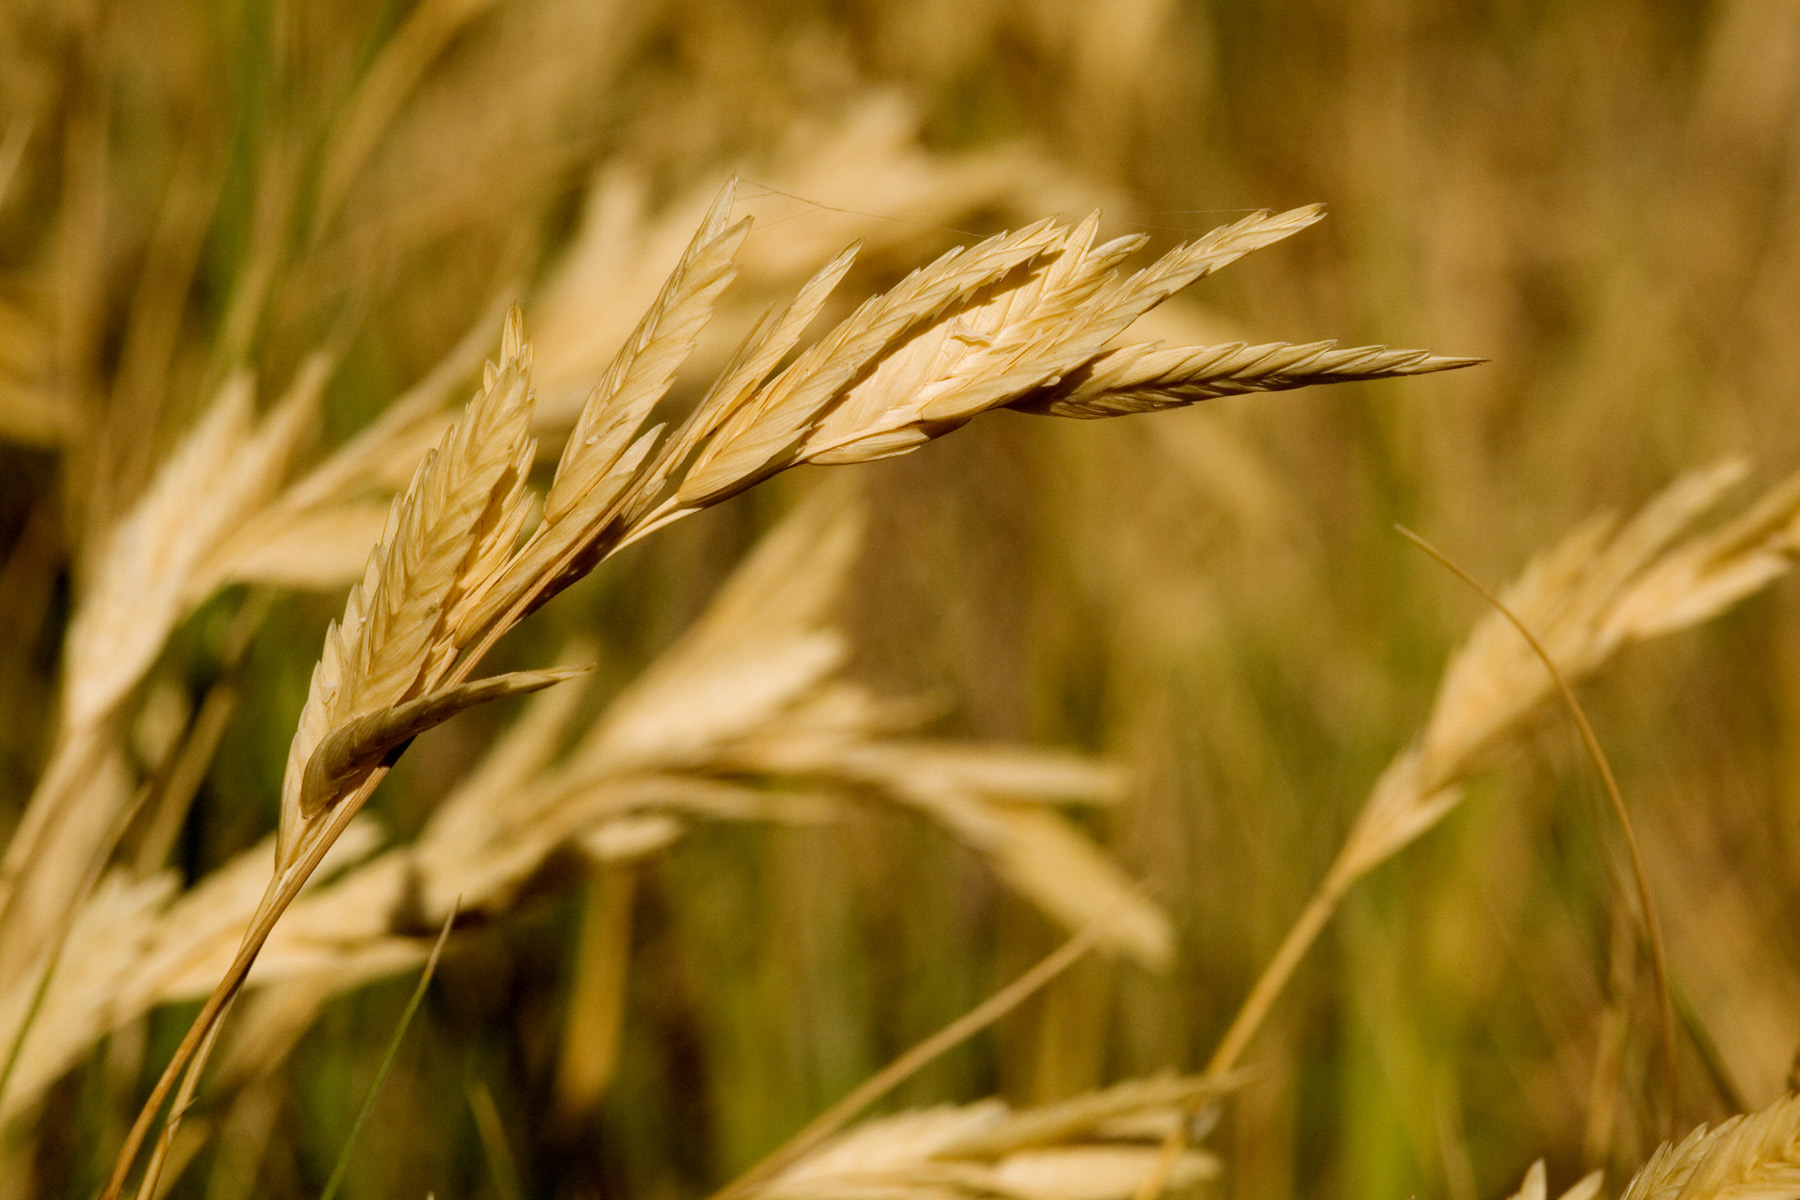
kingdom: Plantae
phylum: Tracheophyta
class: Liliopsida
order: Poales
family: Poaceae
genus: Distichlis
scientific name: Distichlis spicata
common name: Saltgrass
